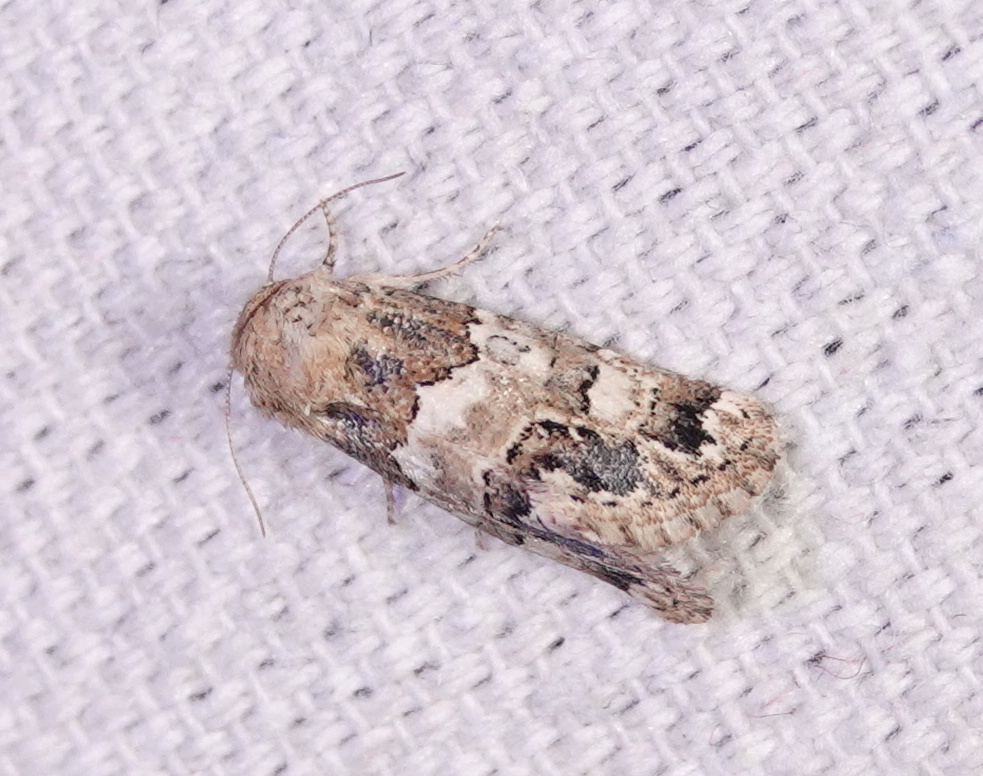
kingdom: Animalia
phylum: Arthropoda
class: Insecta
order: Lepidoptera
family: Noctuidae
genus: Schinia
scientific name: Schinia albafascia
